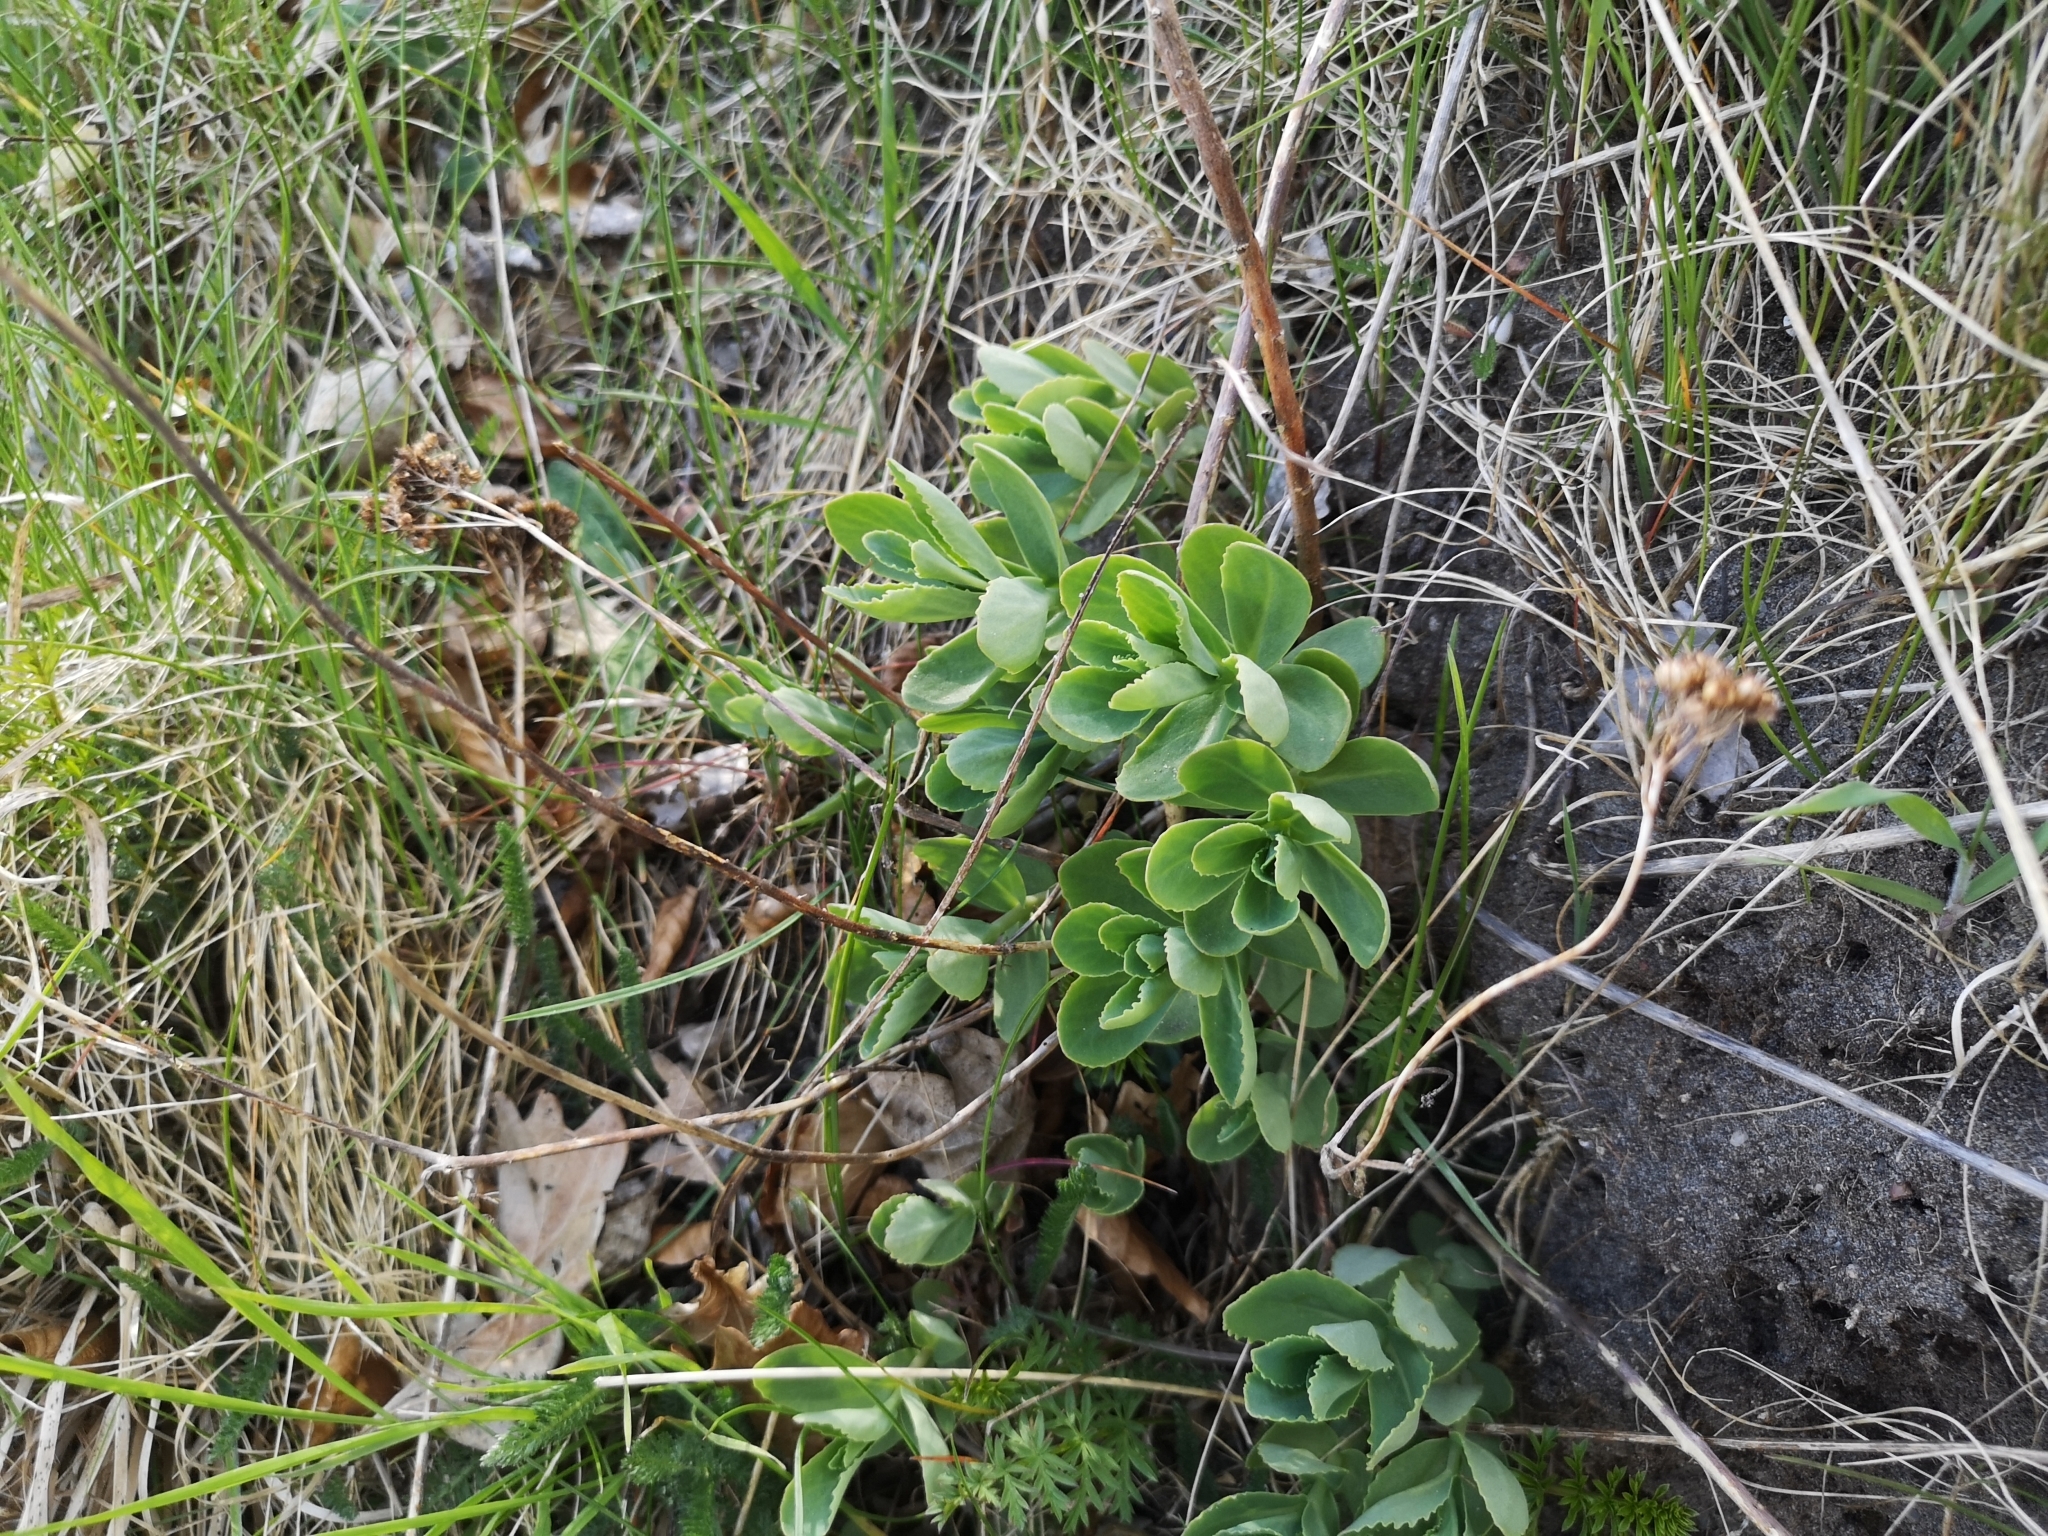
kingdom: Plantae
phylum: Tracheophyta
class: Magnoliopsida
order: Saxifragales
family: Crassulaceae
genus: Hylotelephium
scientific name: Hylotelephium telephium
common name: Live-forever
